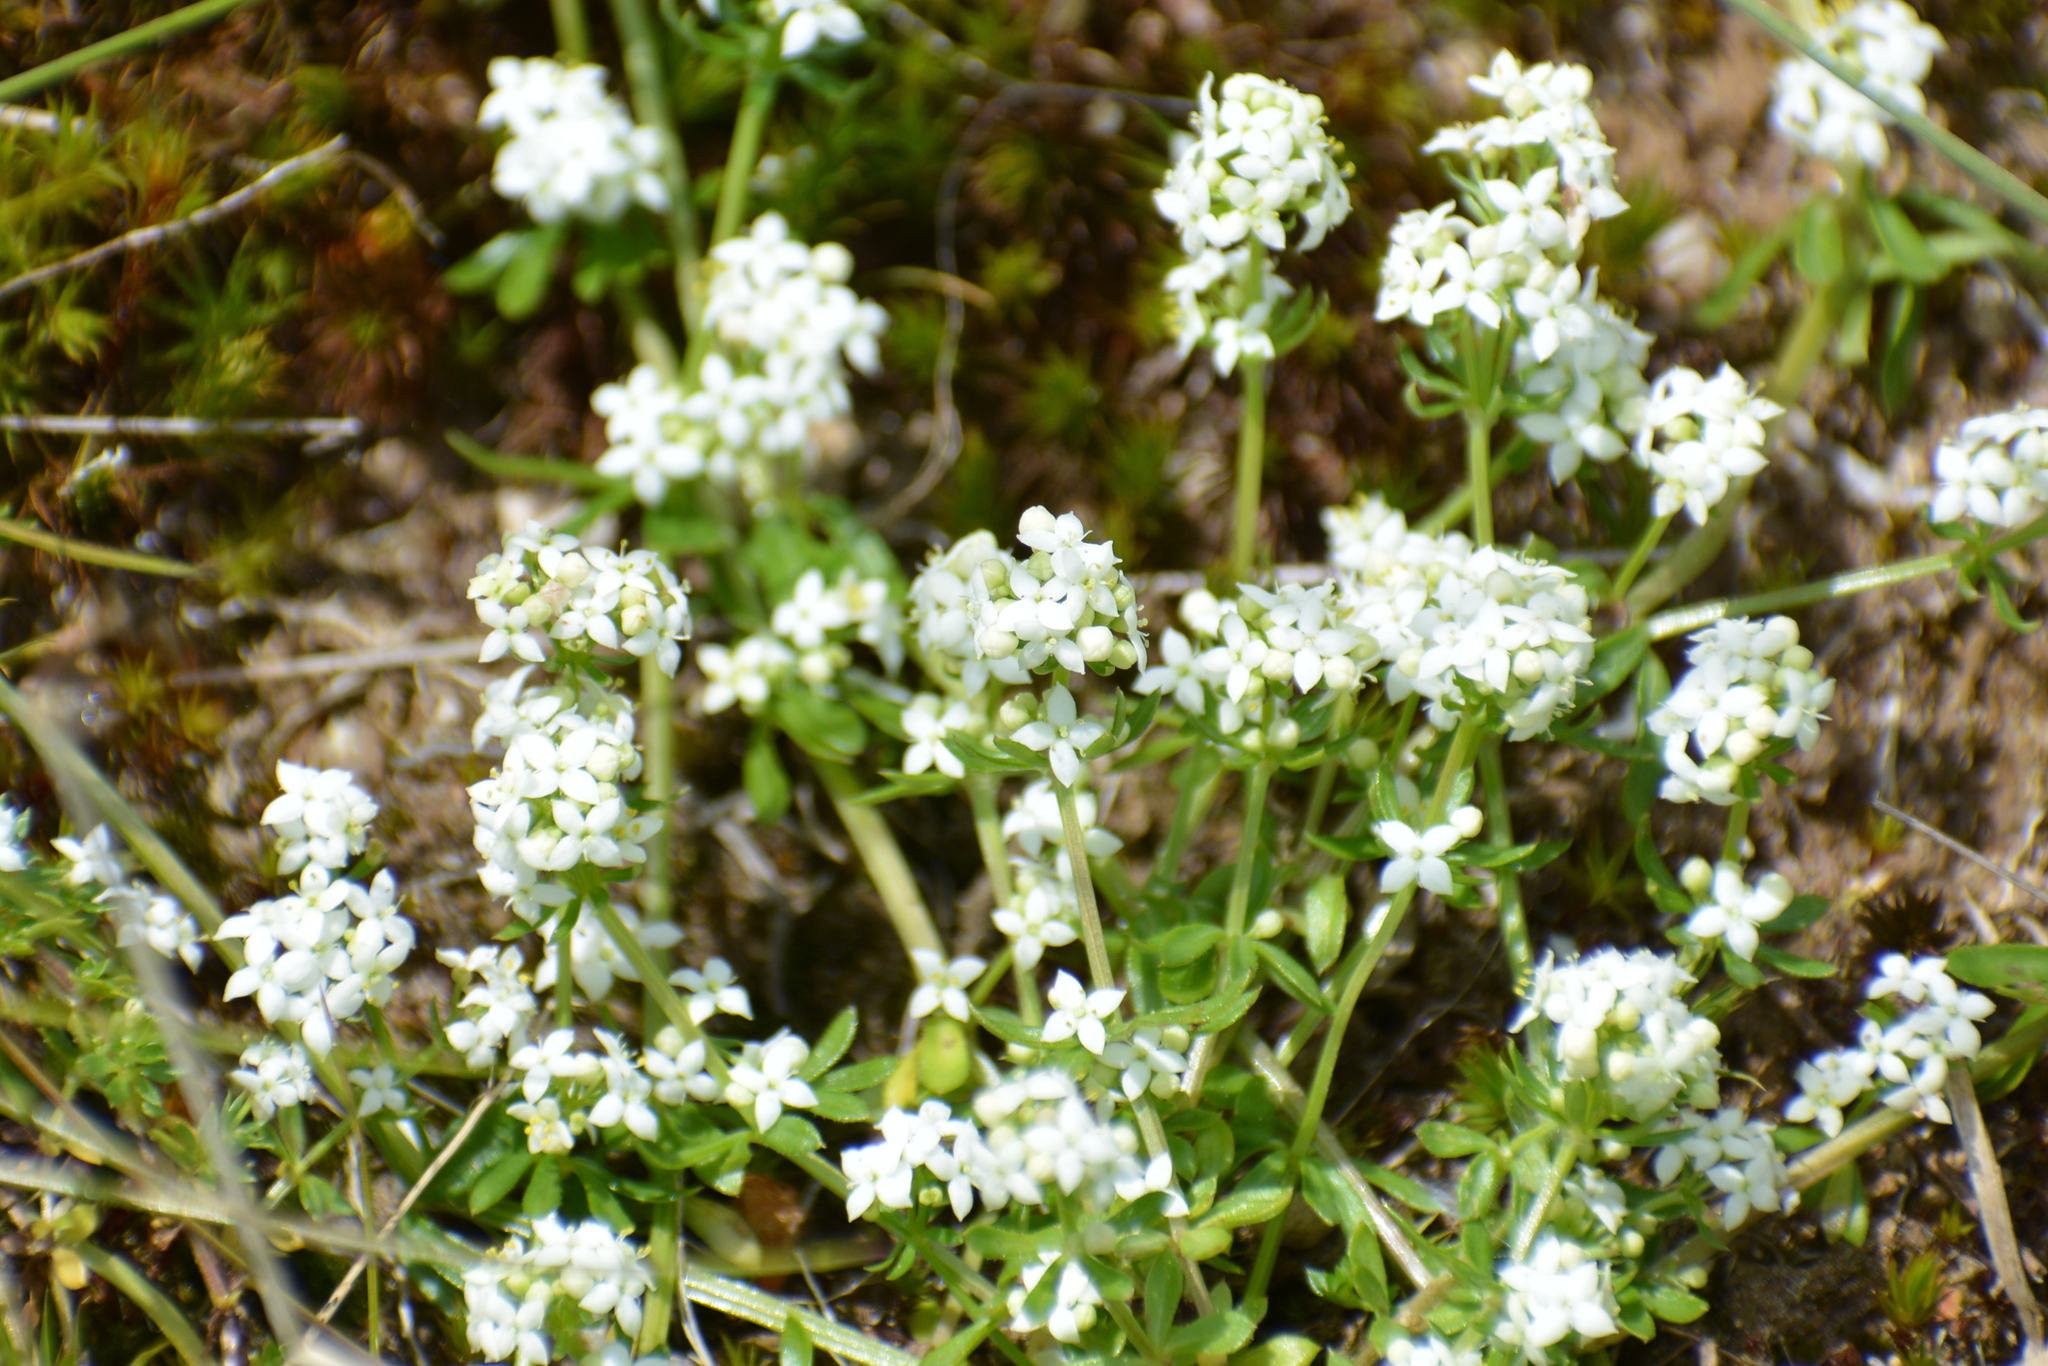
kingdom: Plantae
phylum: Tracheophyta
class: Magnoliopsida
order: Gentianales
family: Rubiaceae
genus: Galium
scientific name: Galium saxatile
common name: Heath bedstraw
